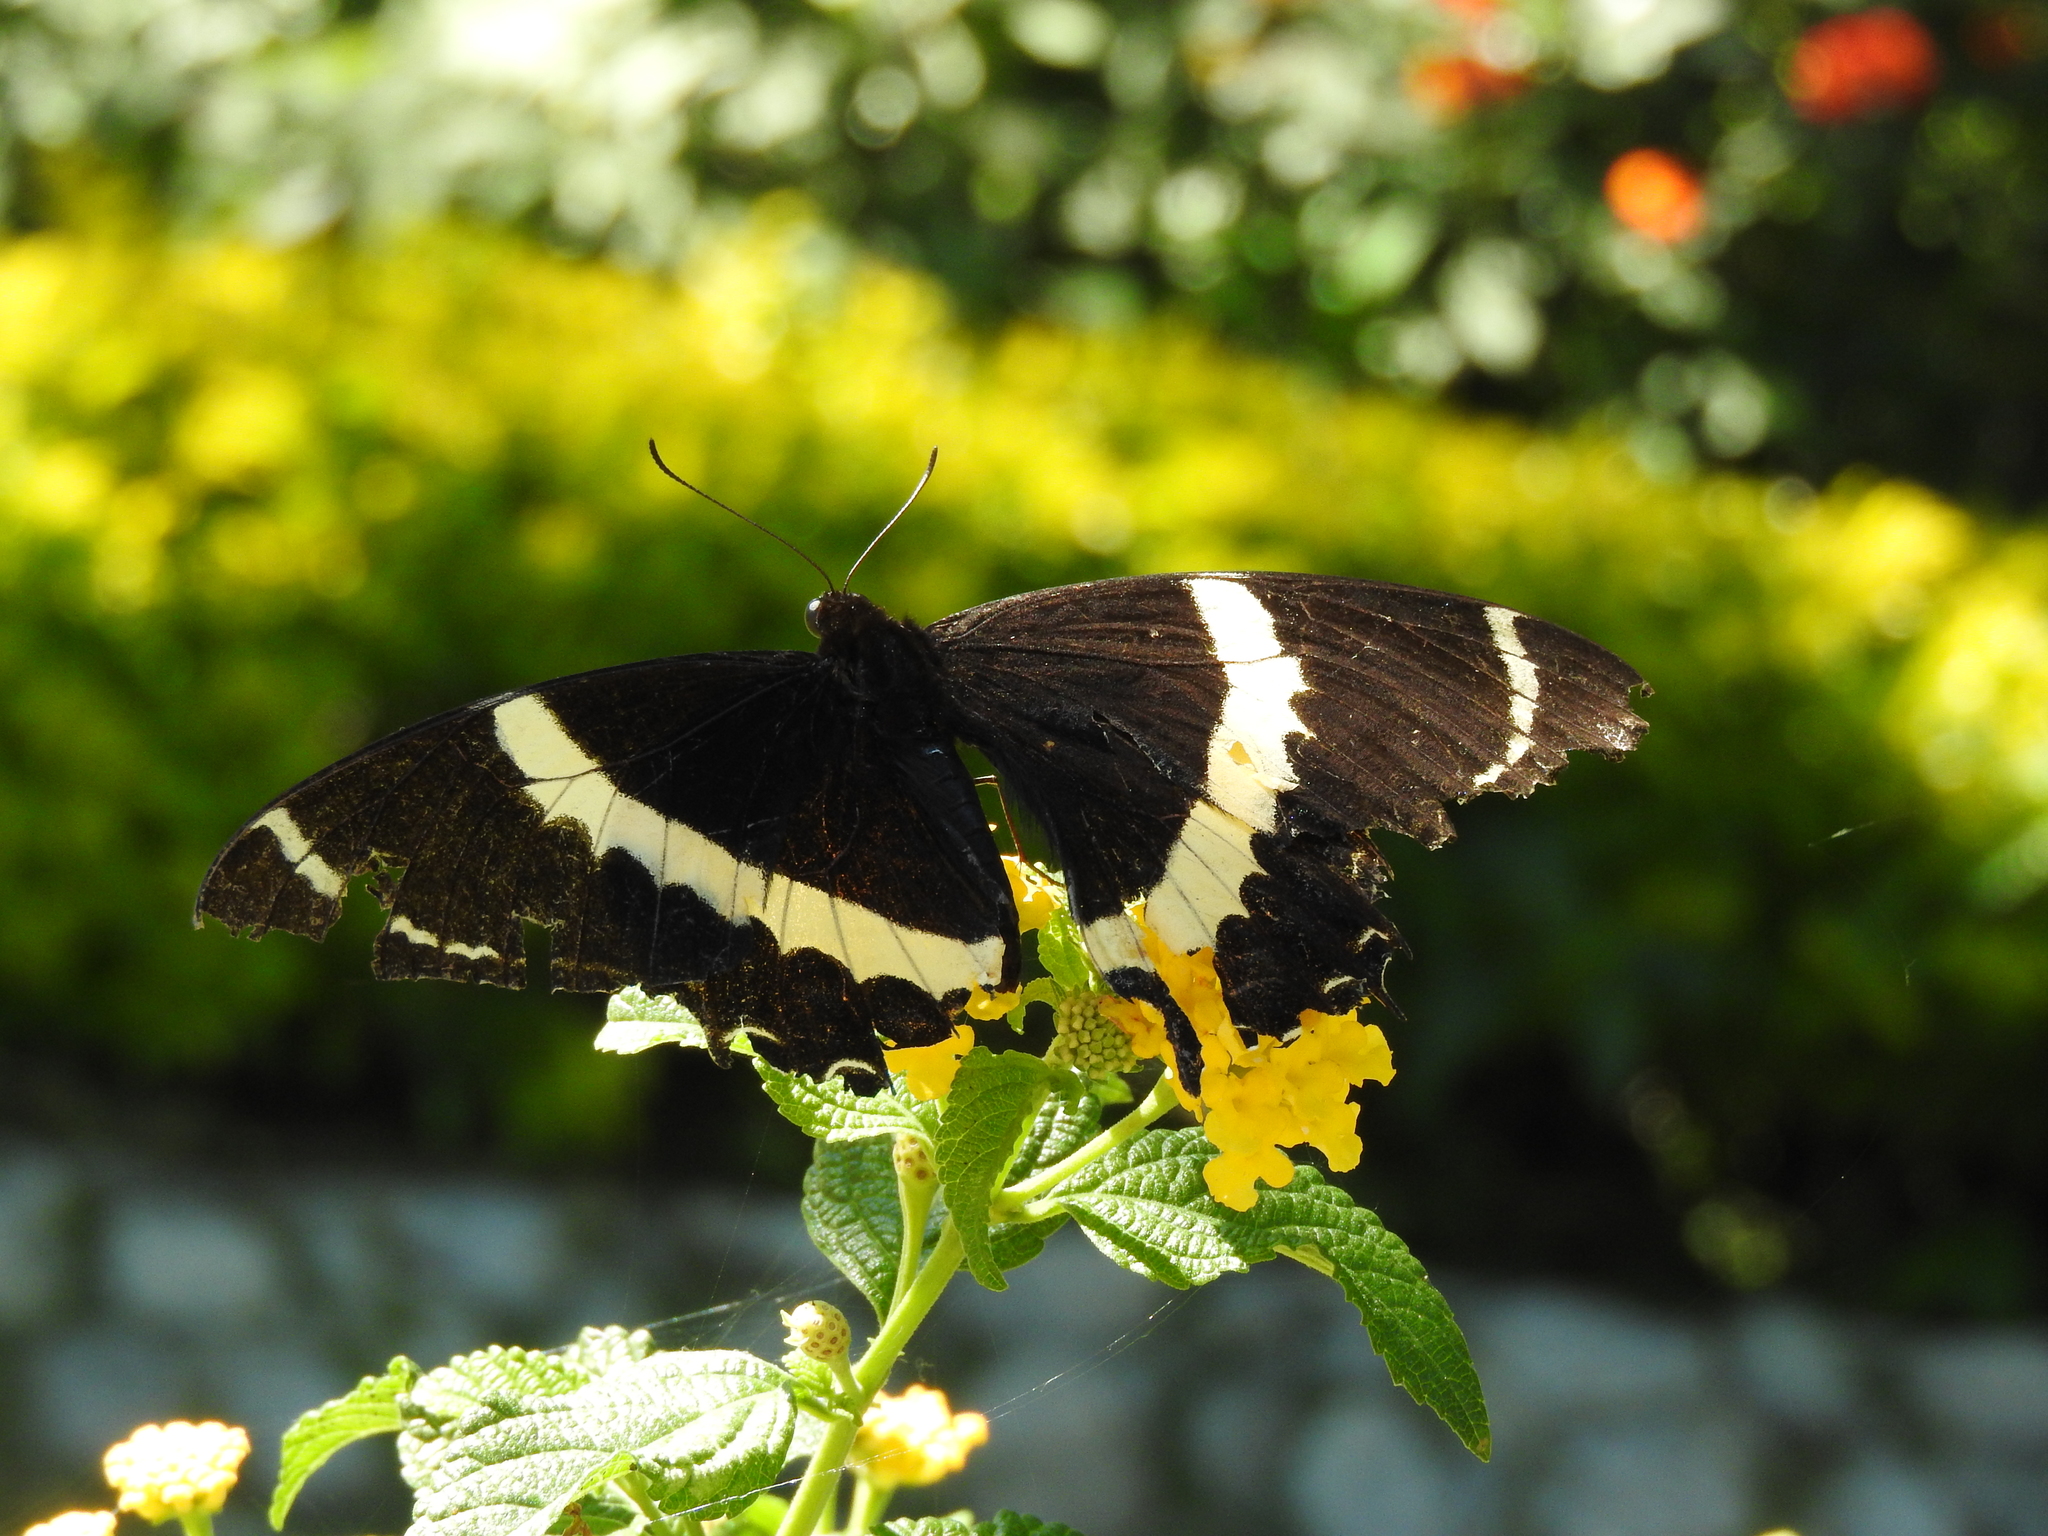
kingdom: Animalia
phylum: Arthropoda
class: Insecta
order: Lepidoptera
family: Papilionidae
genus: Papilio
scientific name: Papilio garamas
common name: Magnificent swallowtail
